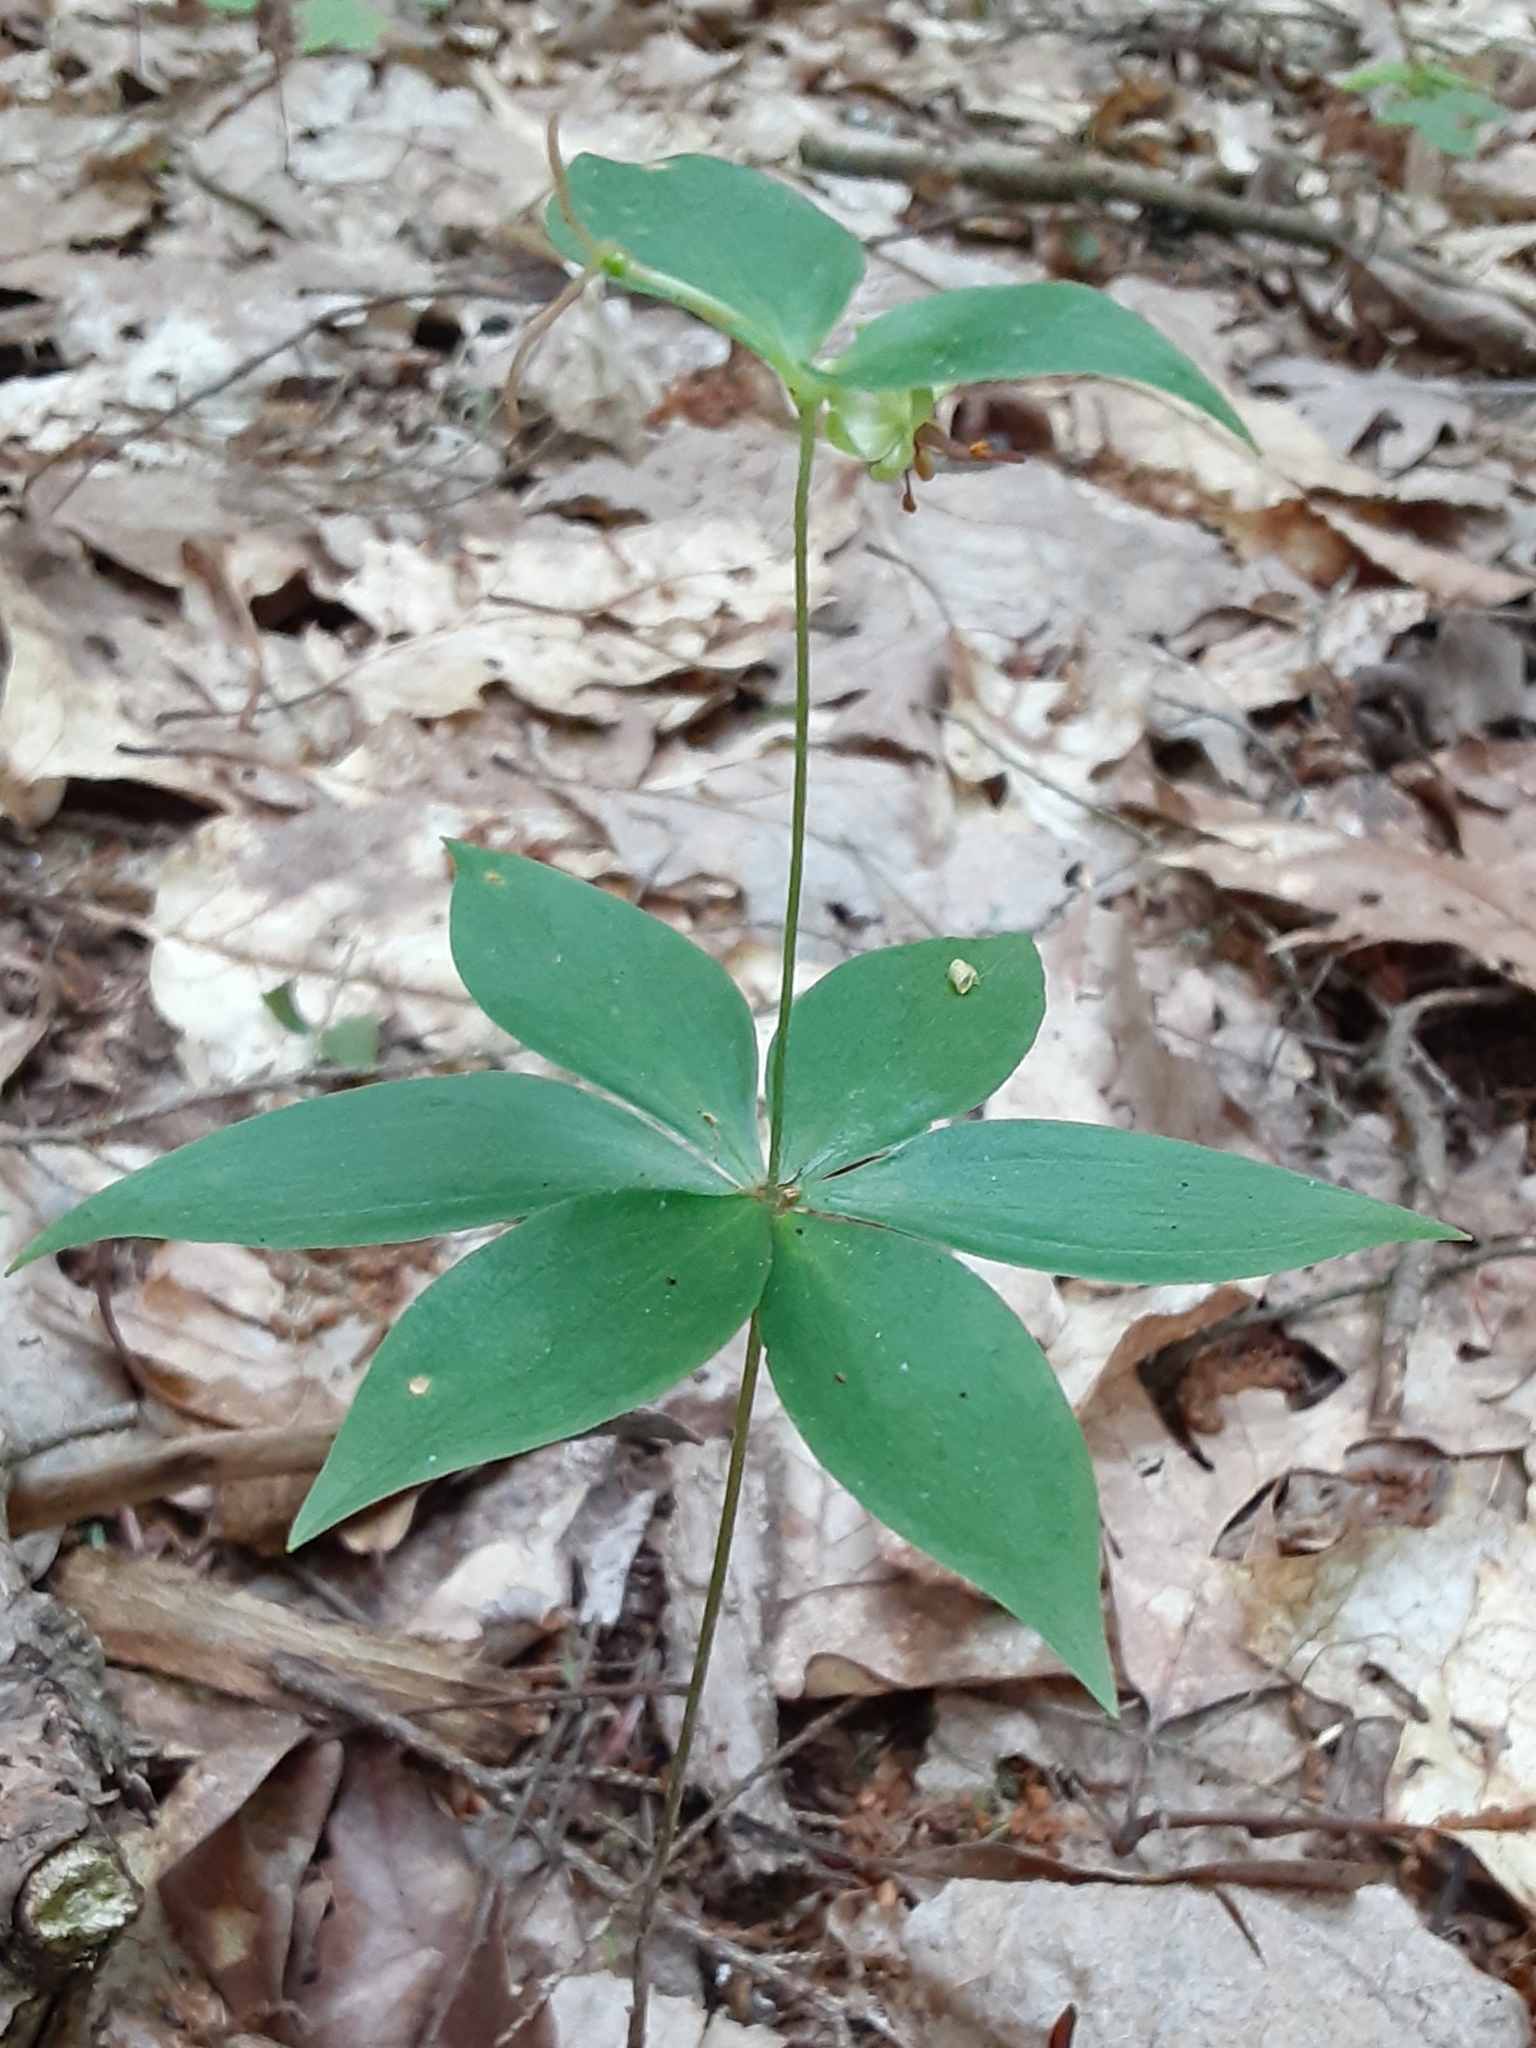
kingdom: Plantae
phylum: Tracheophyta
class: Liliopsida
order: Liliales
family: Liliaceae
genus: Medeola
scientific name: Medeola virginiana
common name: Indian cucumber-root
